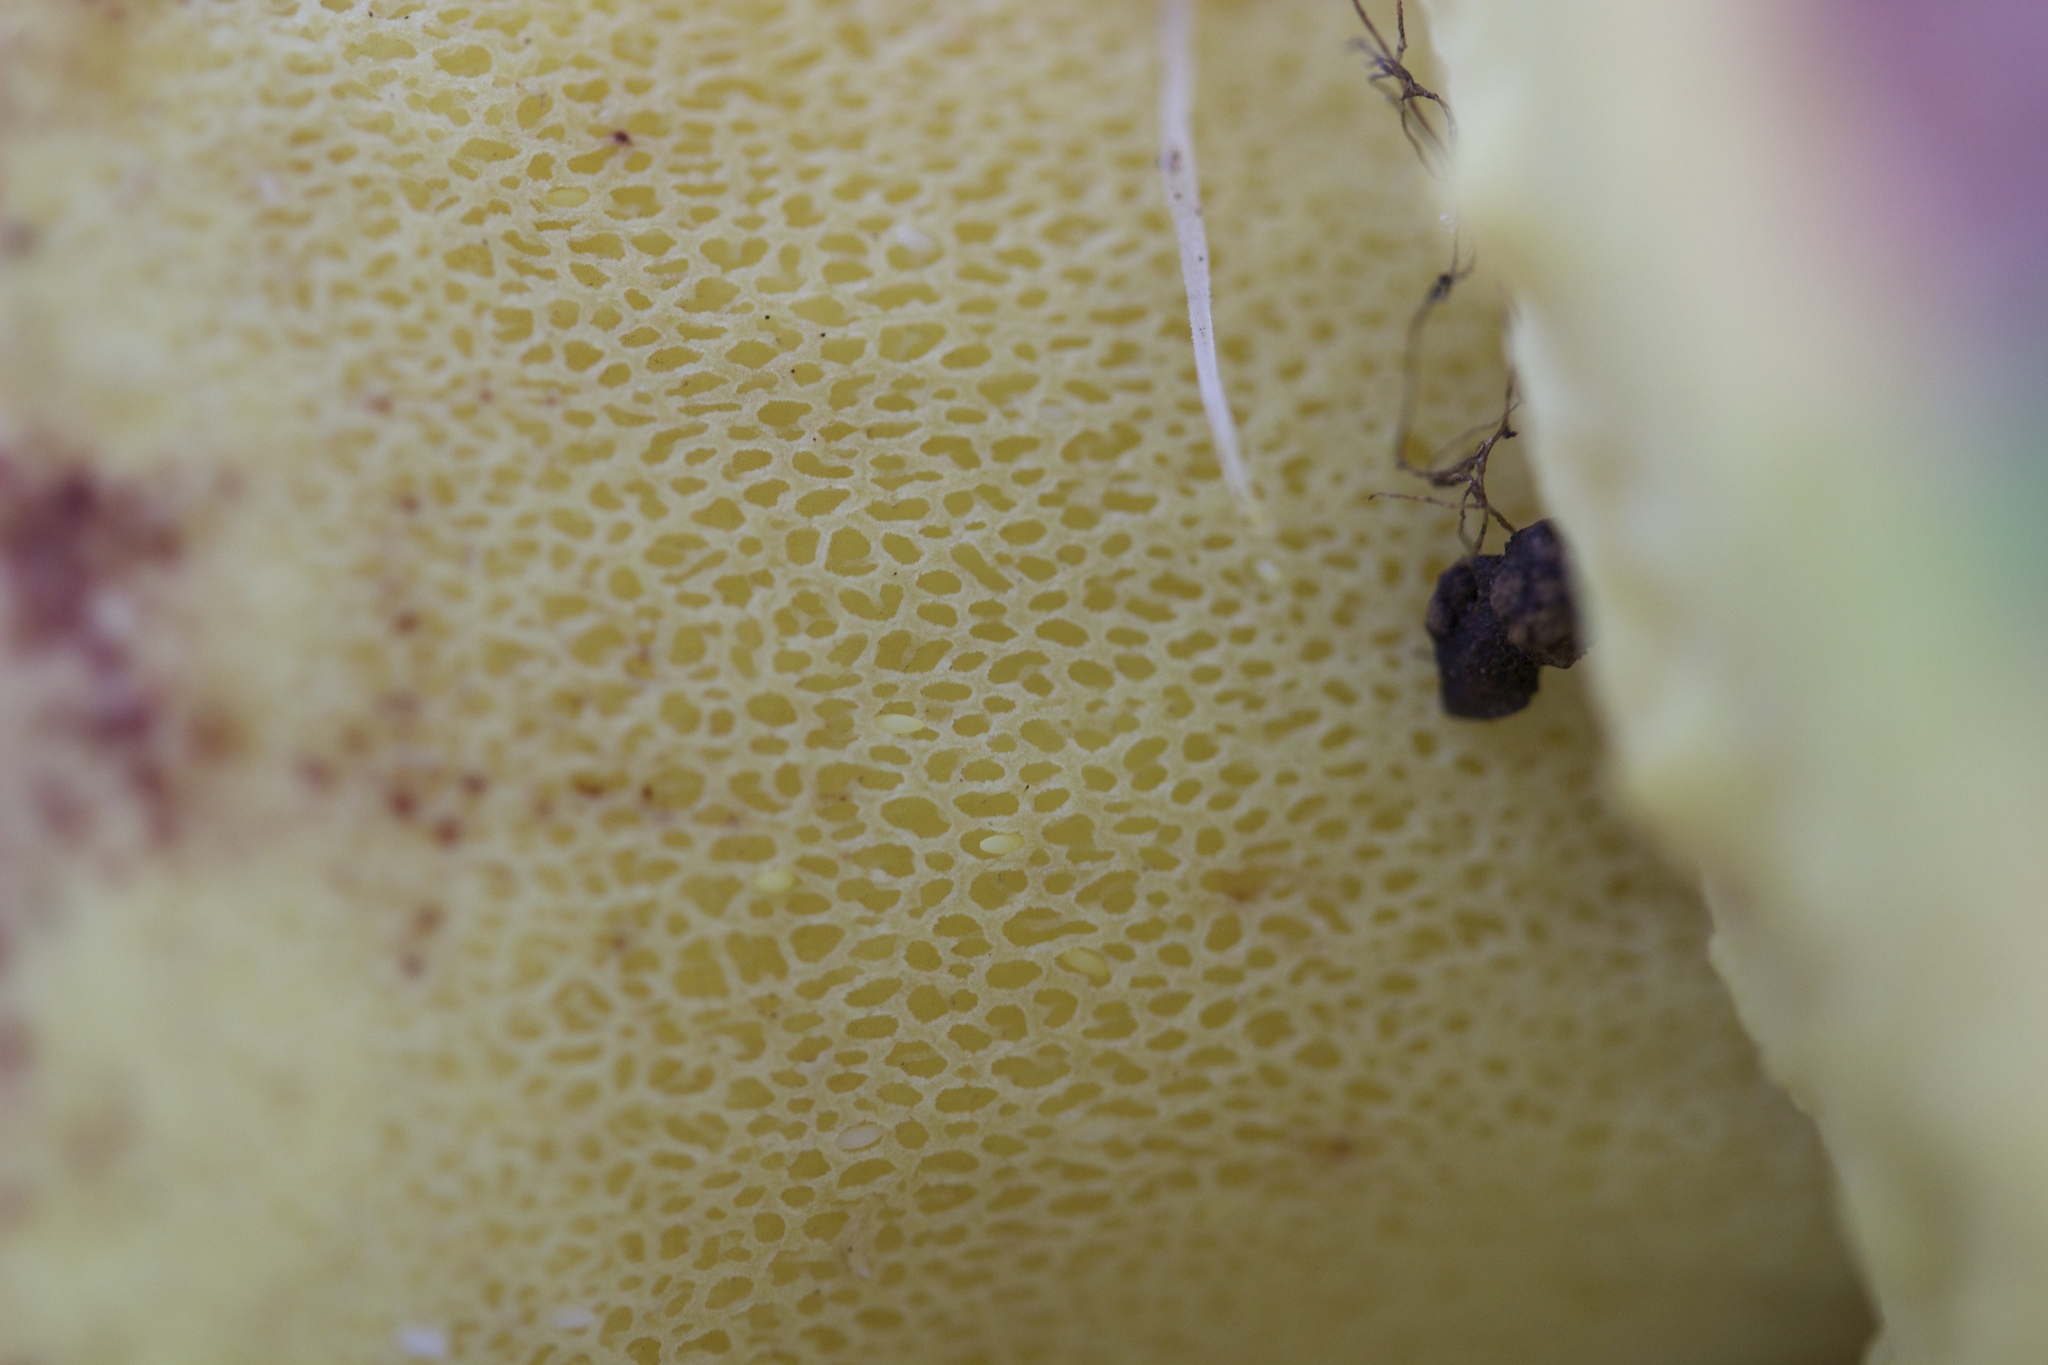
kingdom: Fungi
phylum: Basidiomycota
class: Agaricomycetes
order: Boletales
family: Boletaceae
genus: Butyriboletus
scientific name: Butyriboletus persolidus
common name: Brown butter bolete
